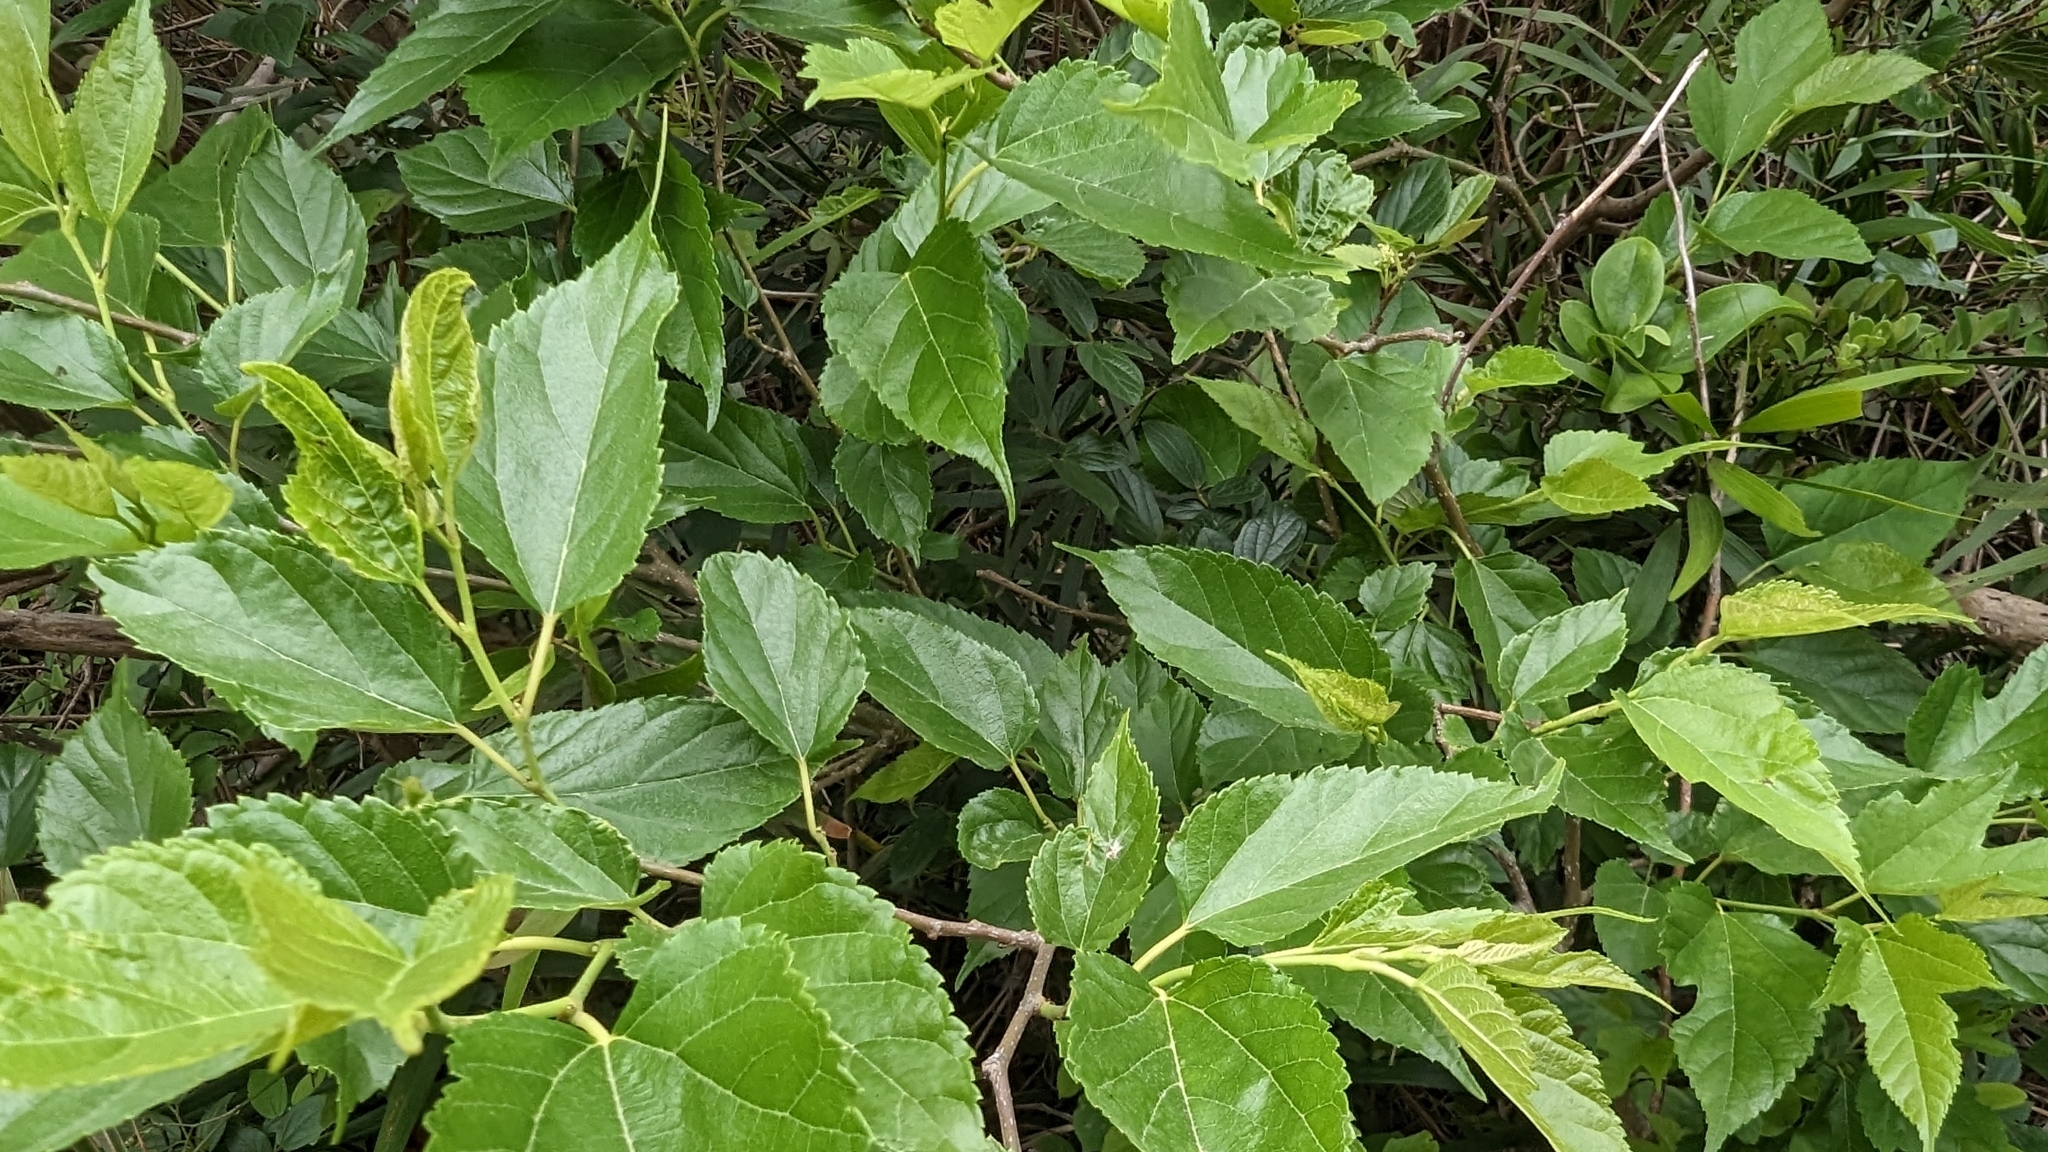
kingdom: Plantae
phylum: Tracheophyta
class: Magnoliopsida
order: Rosales
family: Moraceae
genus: Morus
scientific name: Morus indica
